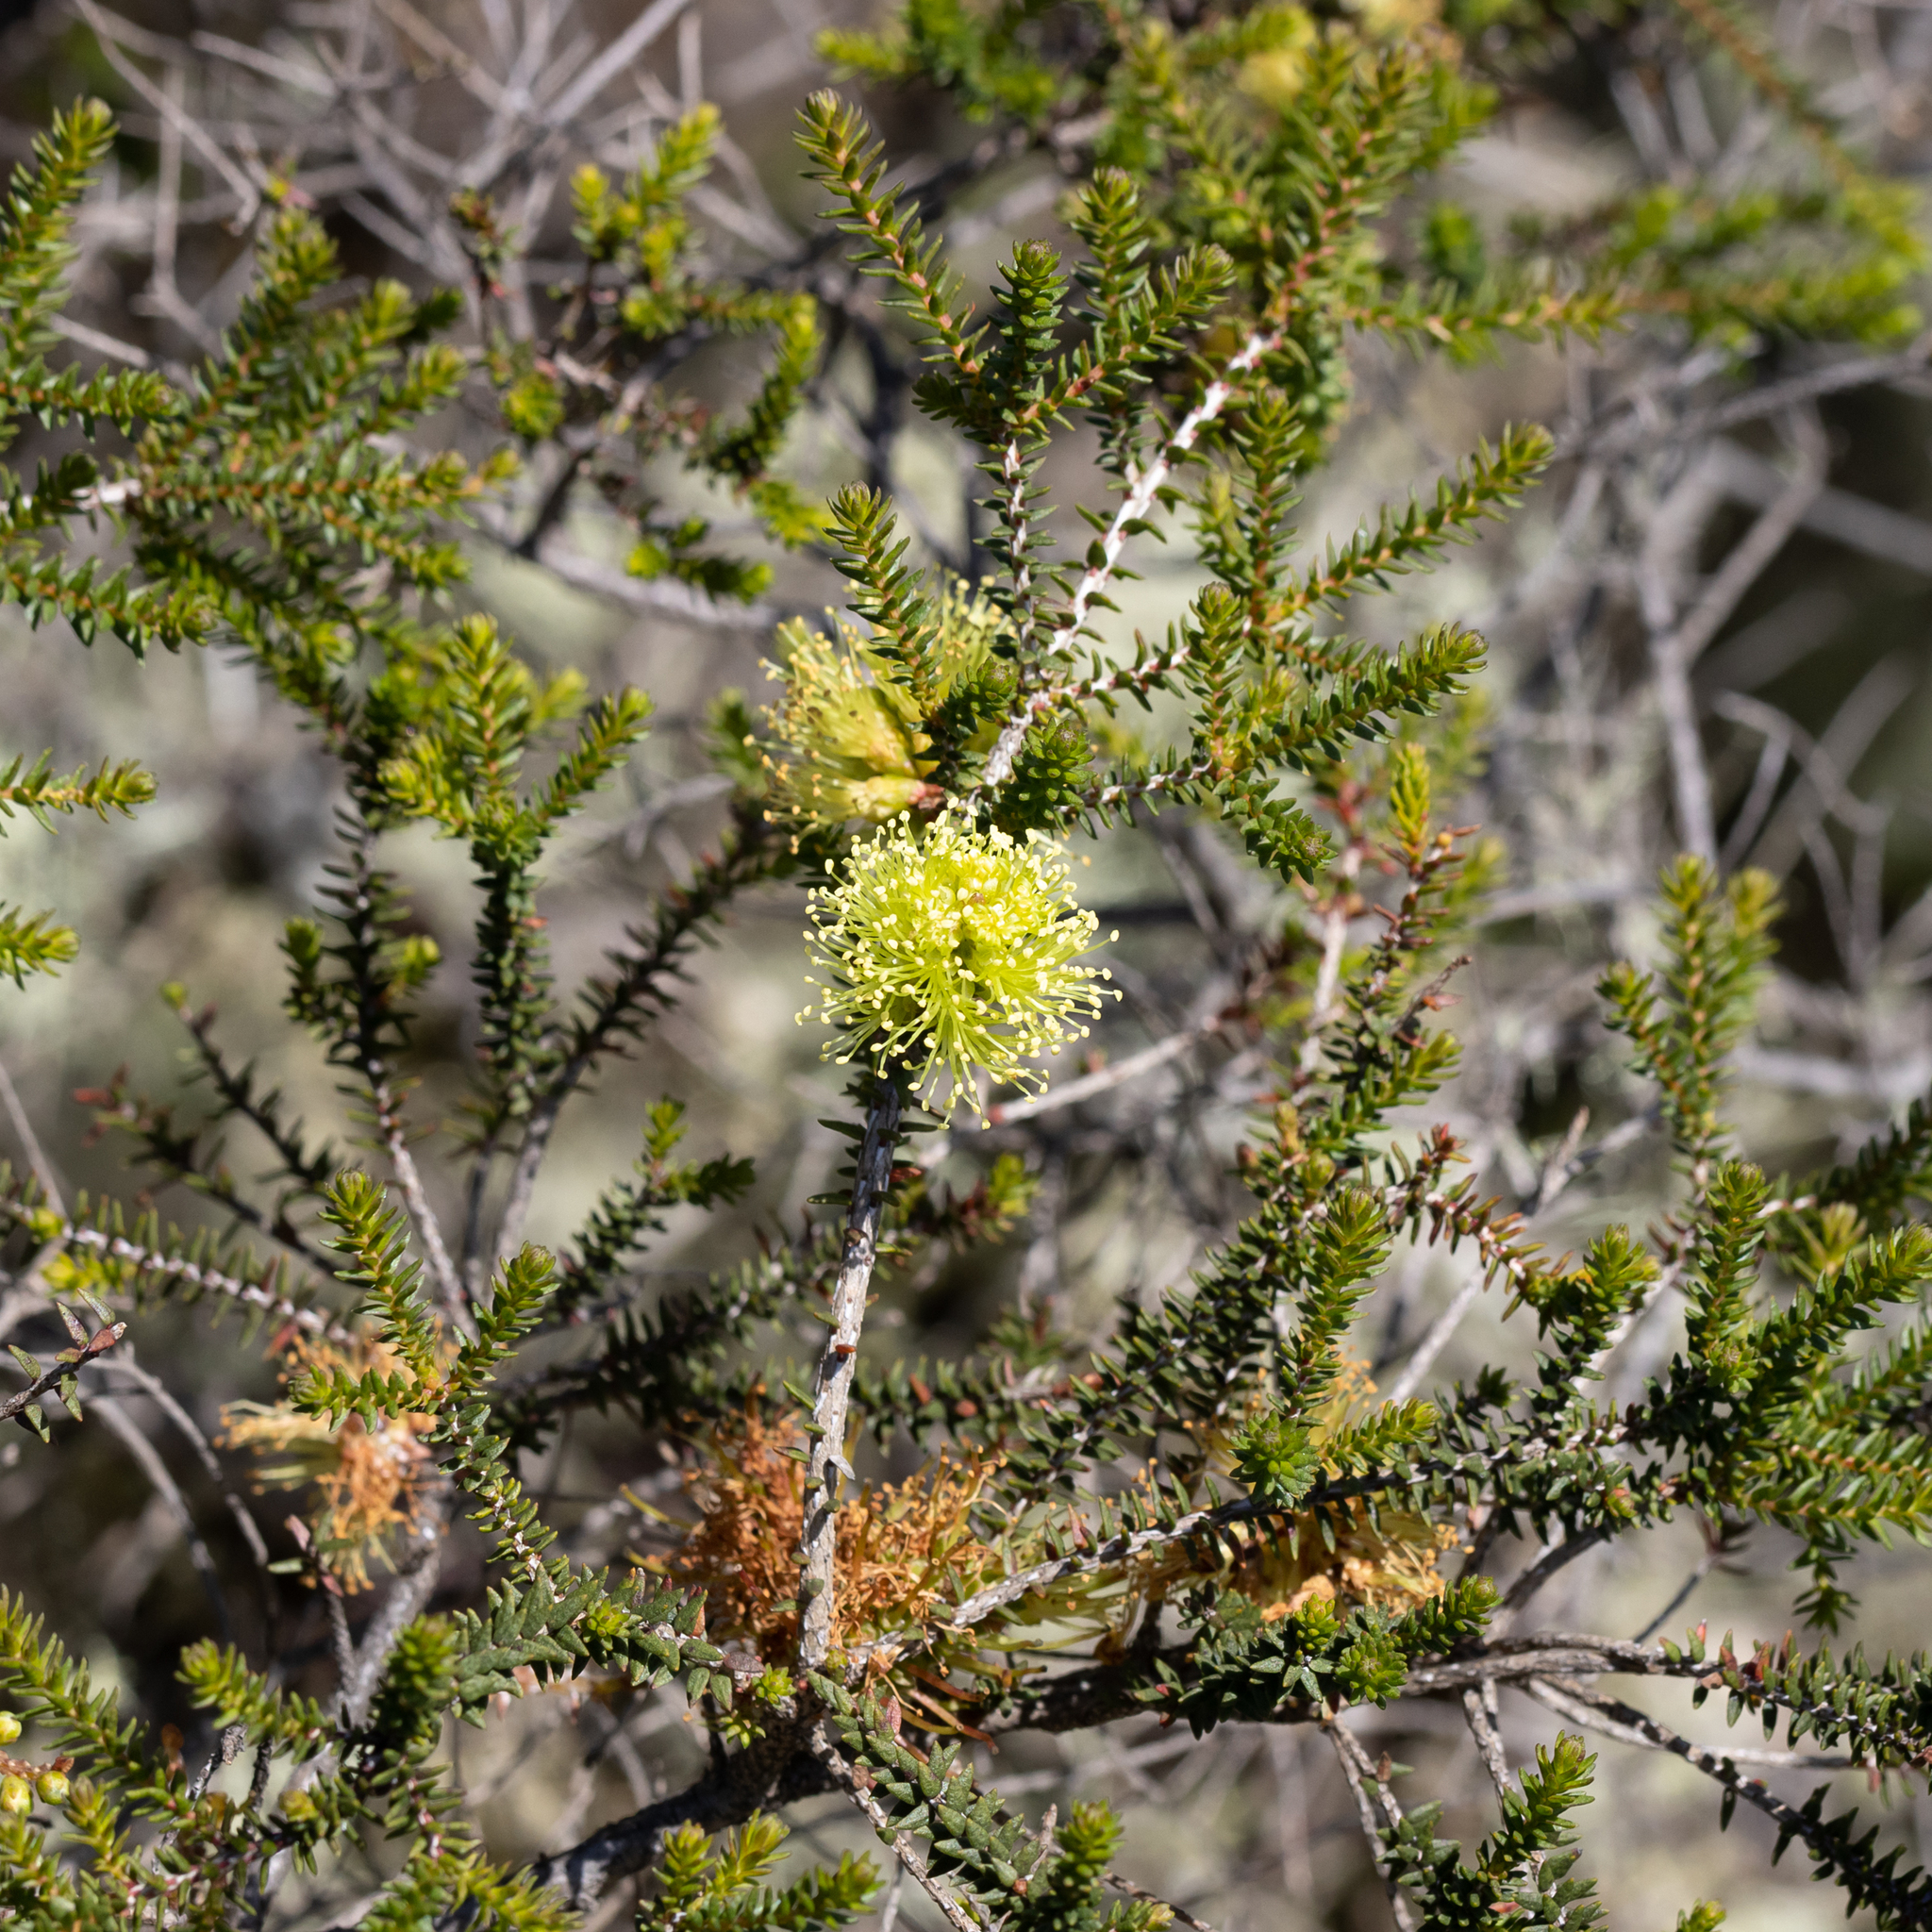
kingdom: Plantae
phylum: Tracheophyta
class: Magnoliopsida
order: Myrtales
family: Myrtaceae
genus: Melaleuca
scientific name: Melaleuca densa
